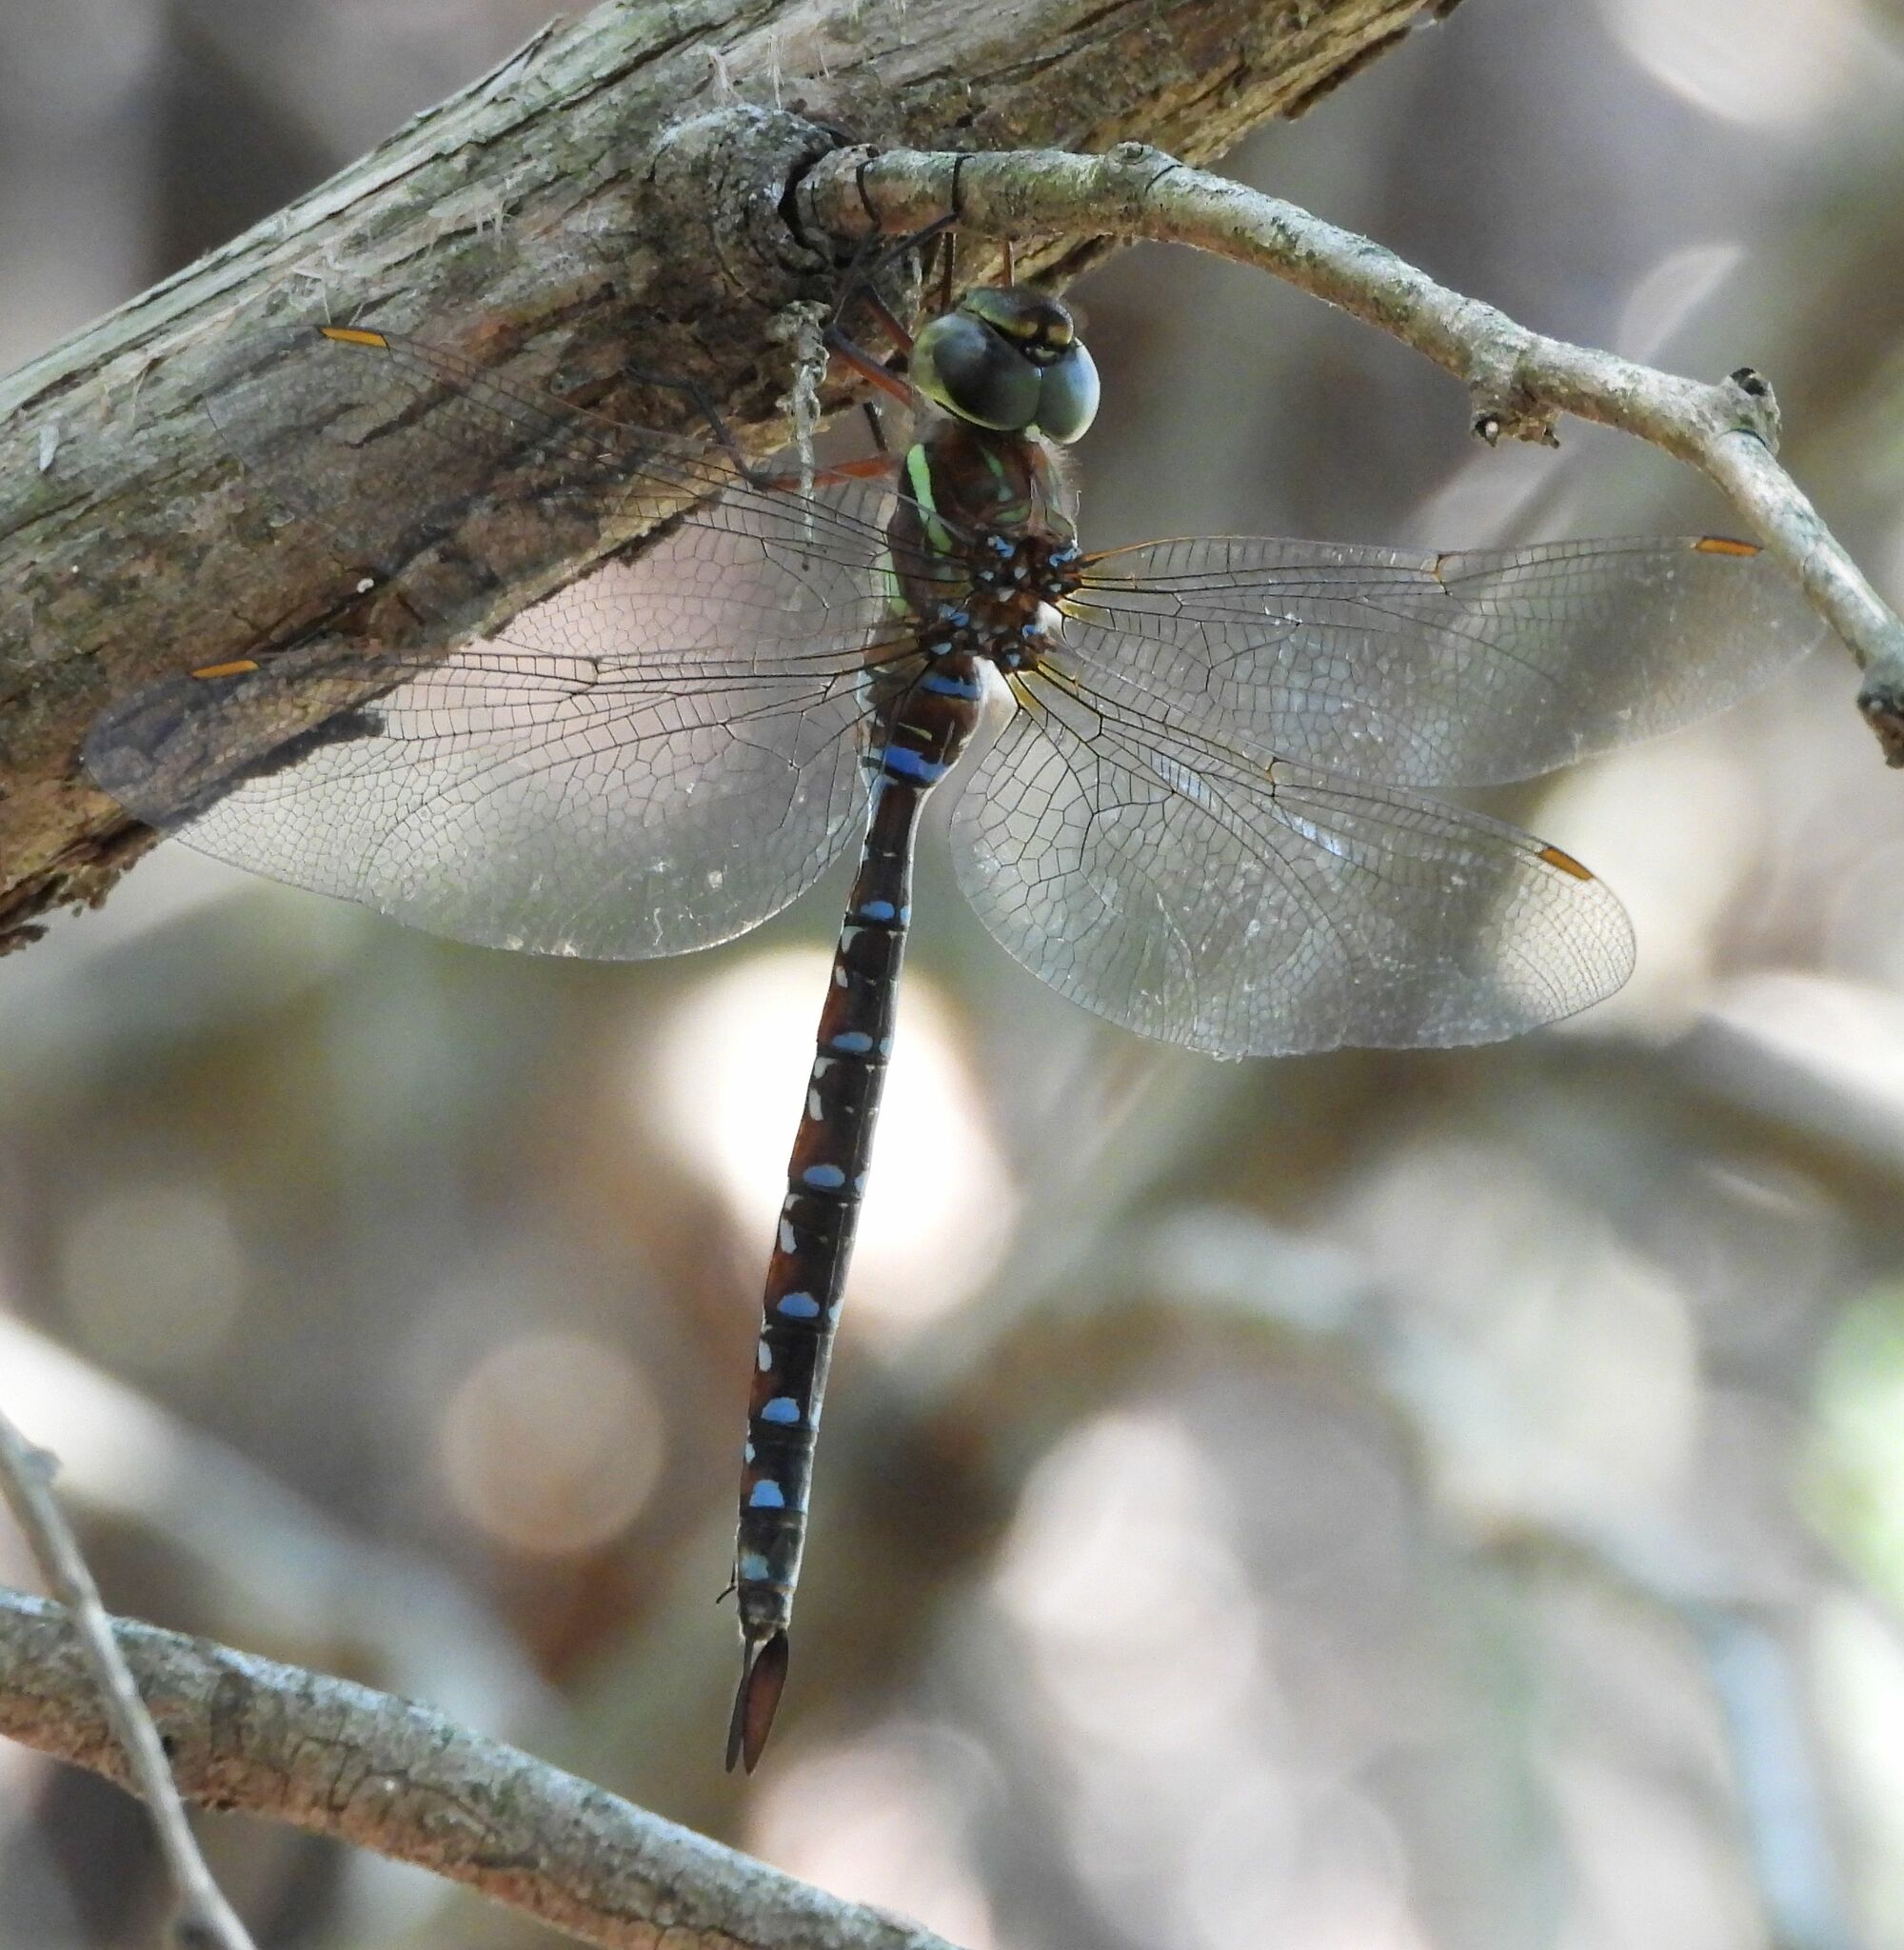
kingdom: Animalia
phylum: Arthropoda
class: Insecta
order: Odonata
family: Aeshnidae
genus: Aeshna
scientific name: Aeshna tuberculifera
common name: Aeschne à tubercules
